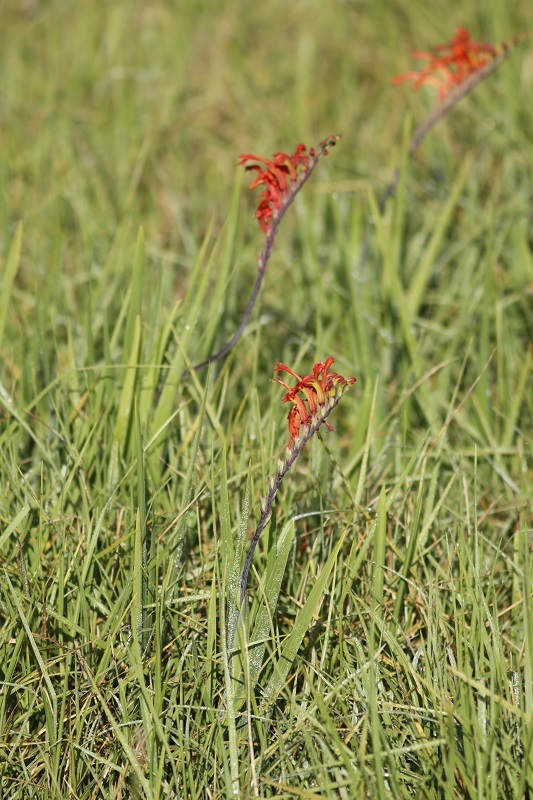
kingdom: Plantae
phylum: Tracheophyta
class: Liliopsida
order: Asparagales
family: Iridaceae
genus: Chasmanthe
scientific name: Chasmanthe aethiopica
